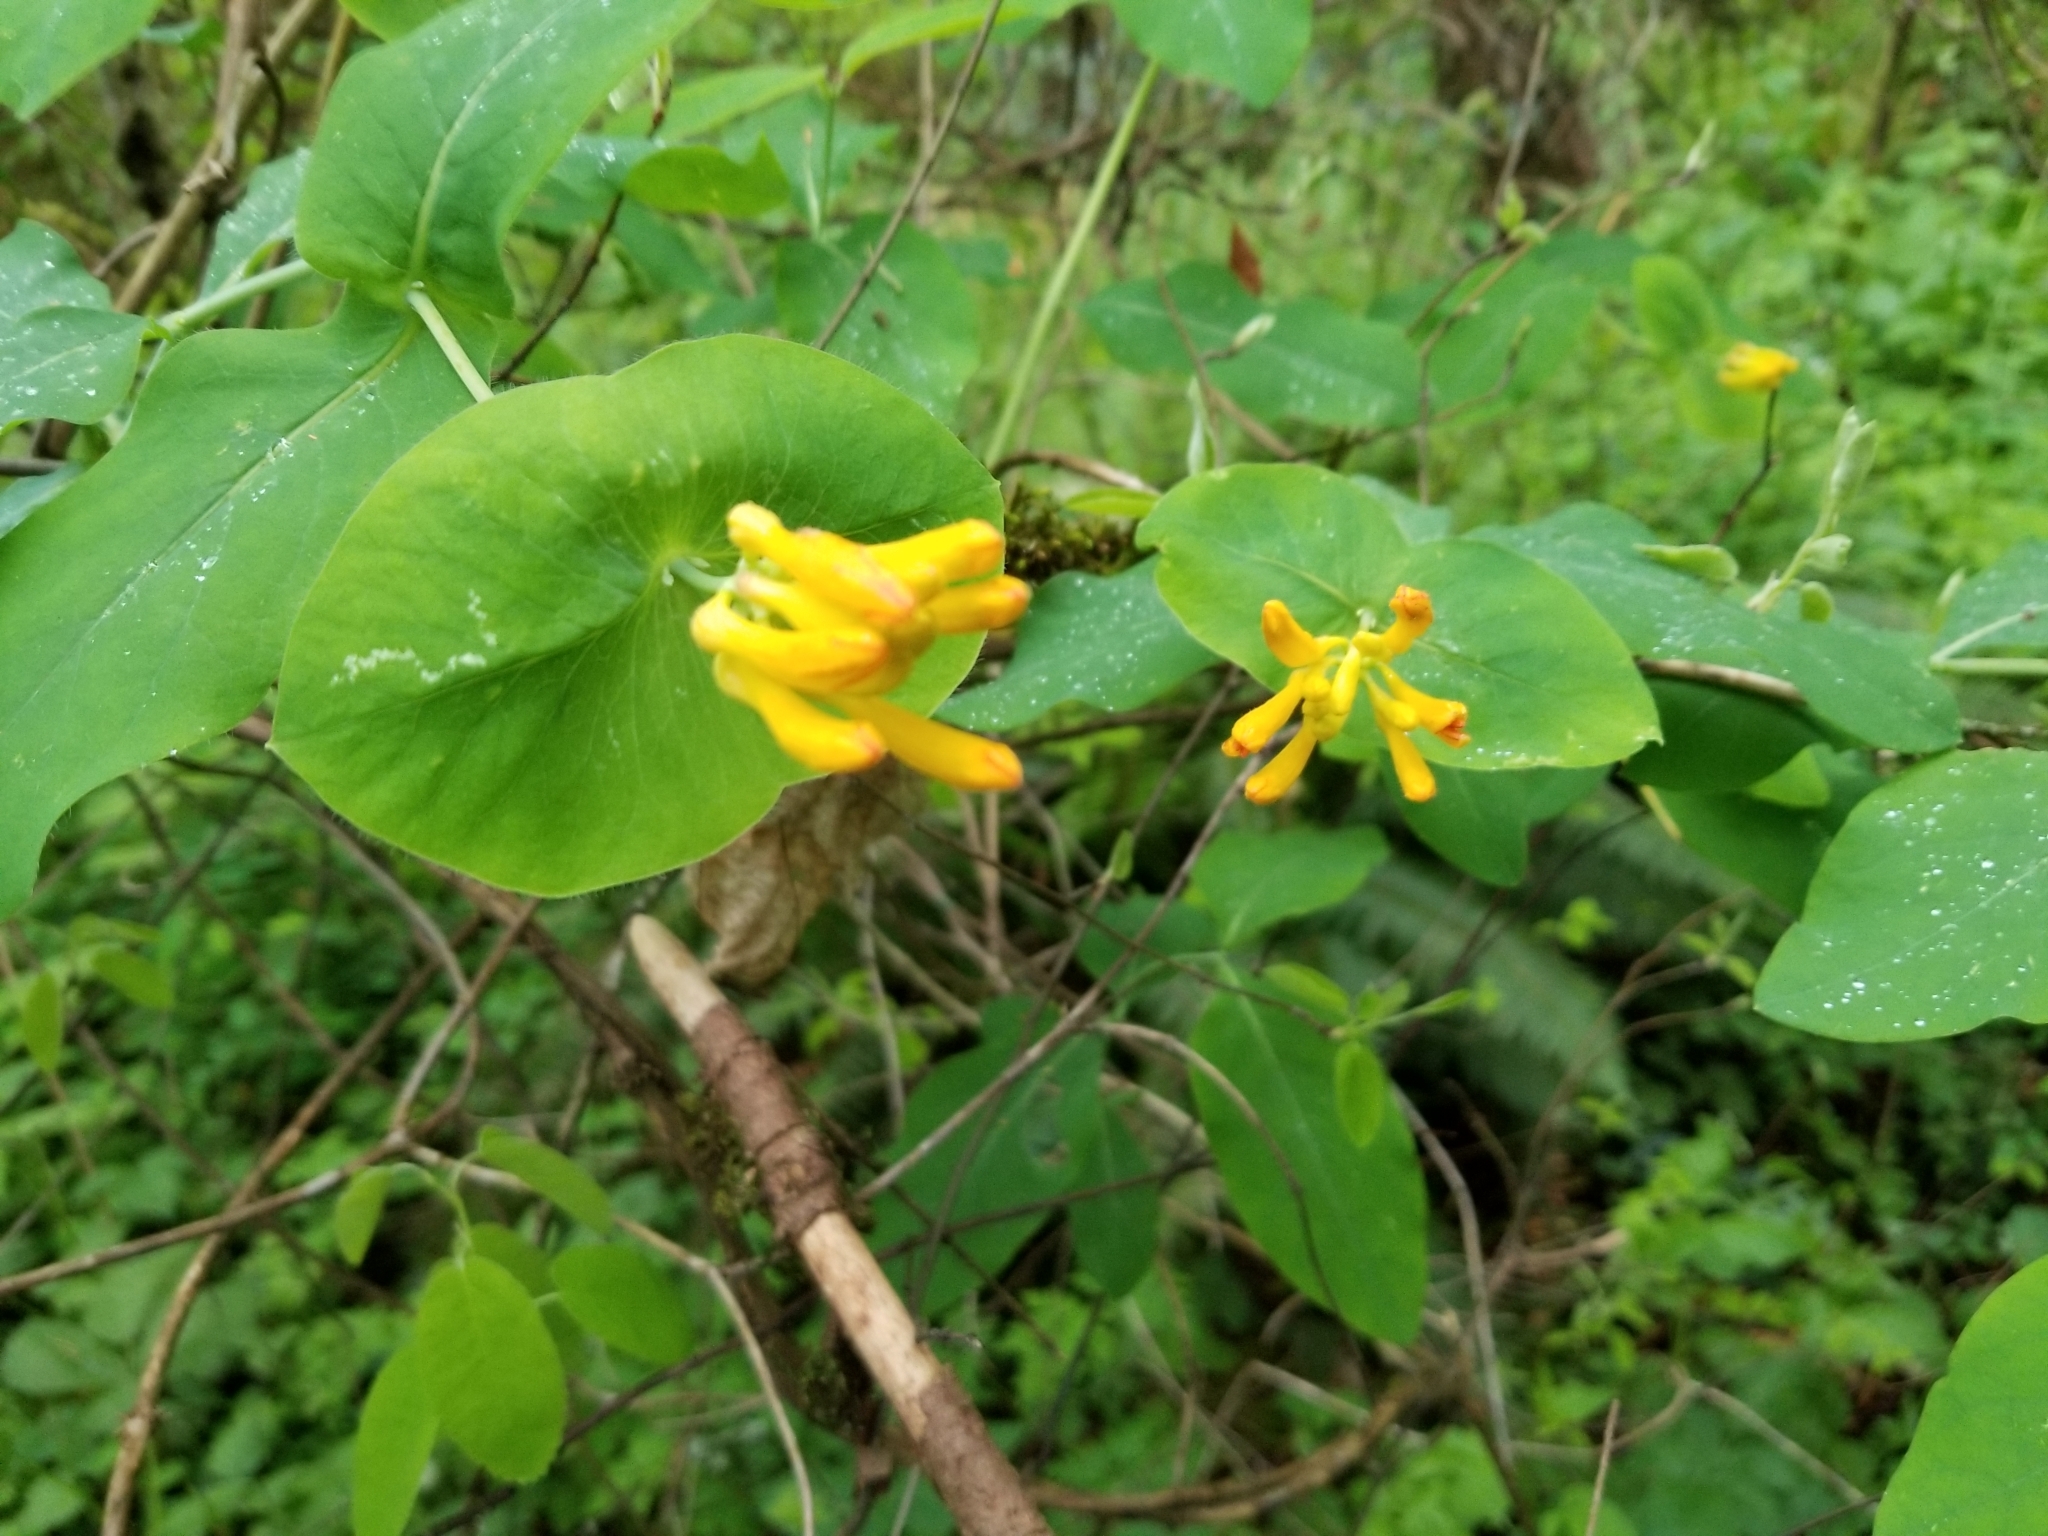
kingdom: Plantae
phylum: Tracheophyta
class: Magnoliopsida
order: Dipsacales
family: Caprifoliaceae
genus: Lonicera
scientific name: Lonicera ciliosa
